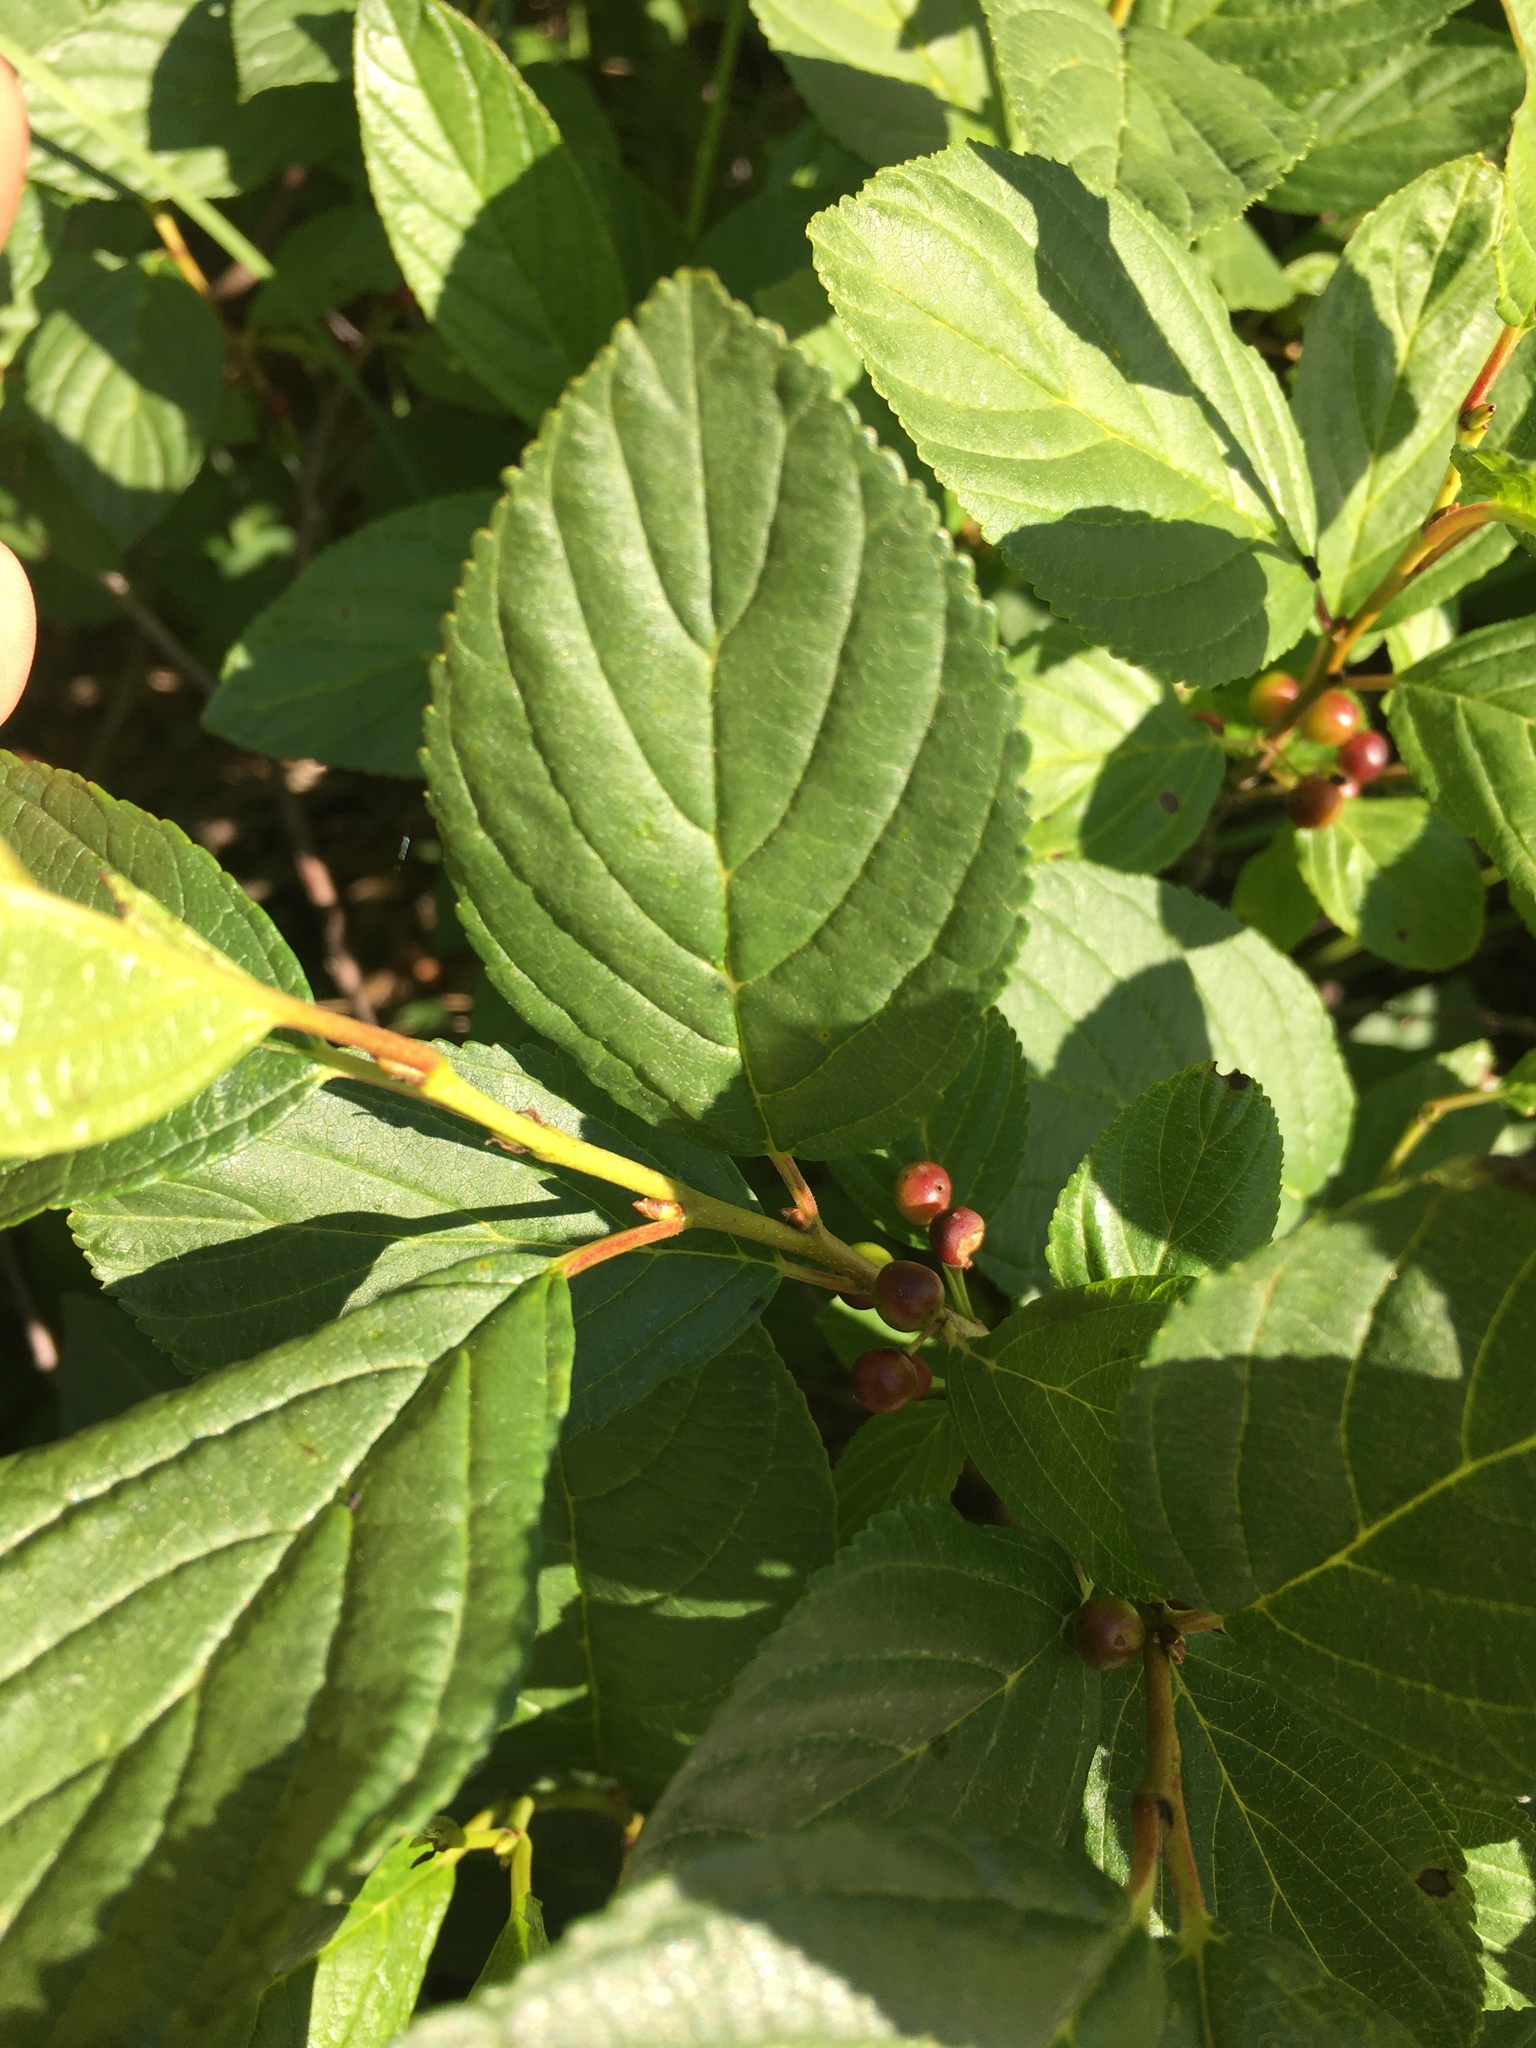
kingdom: Plantae
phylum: Tracheophyta
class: Magnoliopsida
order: Rosales
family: Rhamnaceae
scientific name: Rhamnaceae
